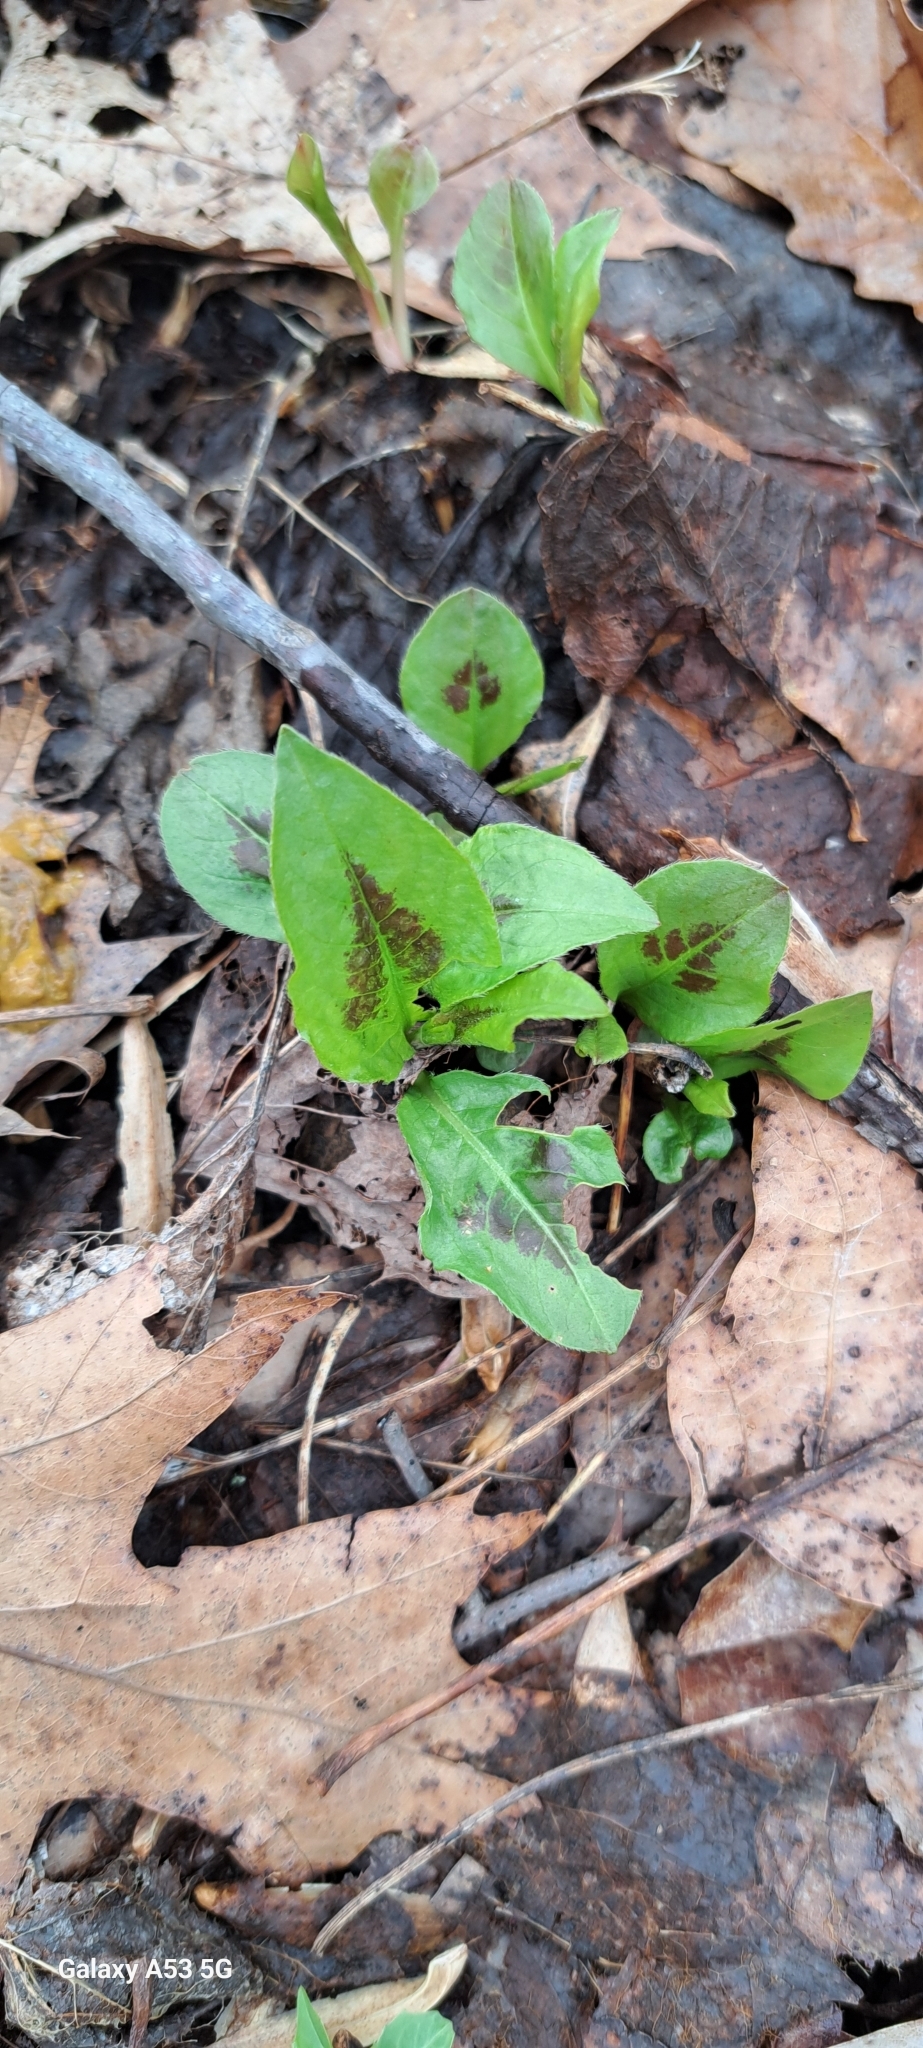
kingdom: Plantae
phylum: Tracheophyta
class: Magnoliopsida
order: Caryophyllales
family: Polygonaceae
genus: Persicaria
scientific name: Persicaria virginiana
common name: Jumpseed
